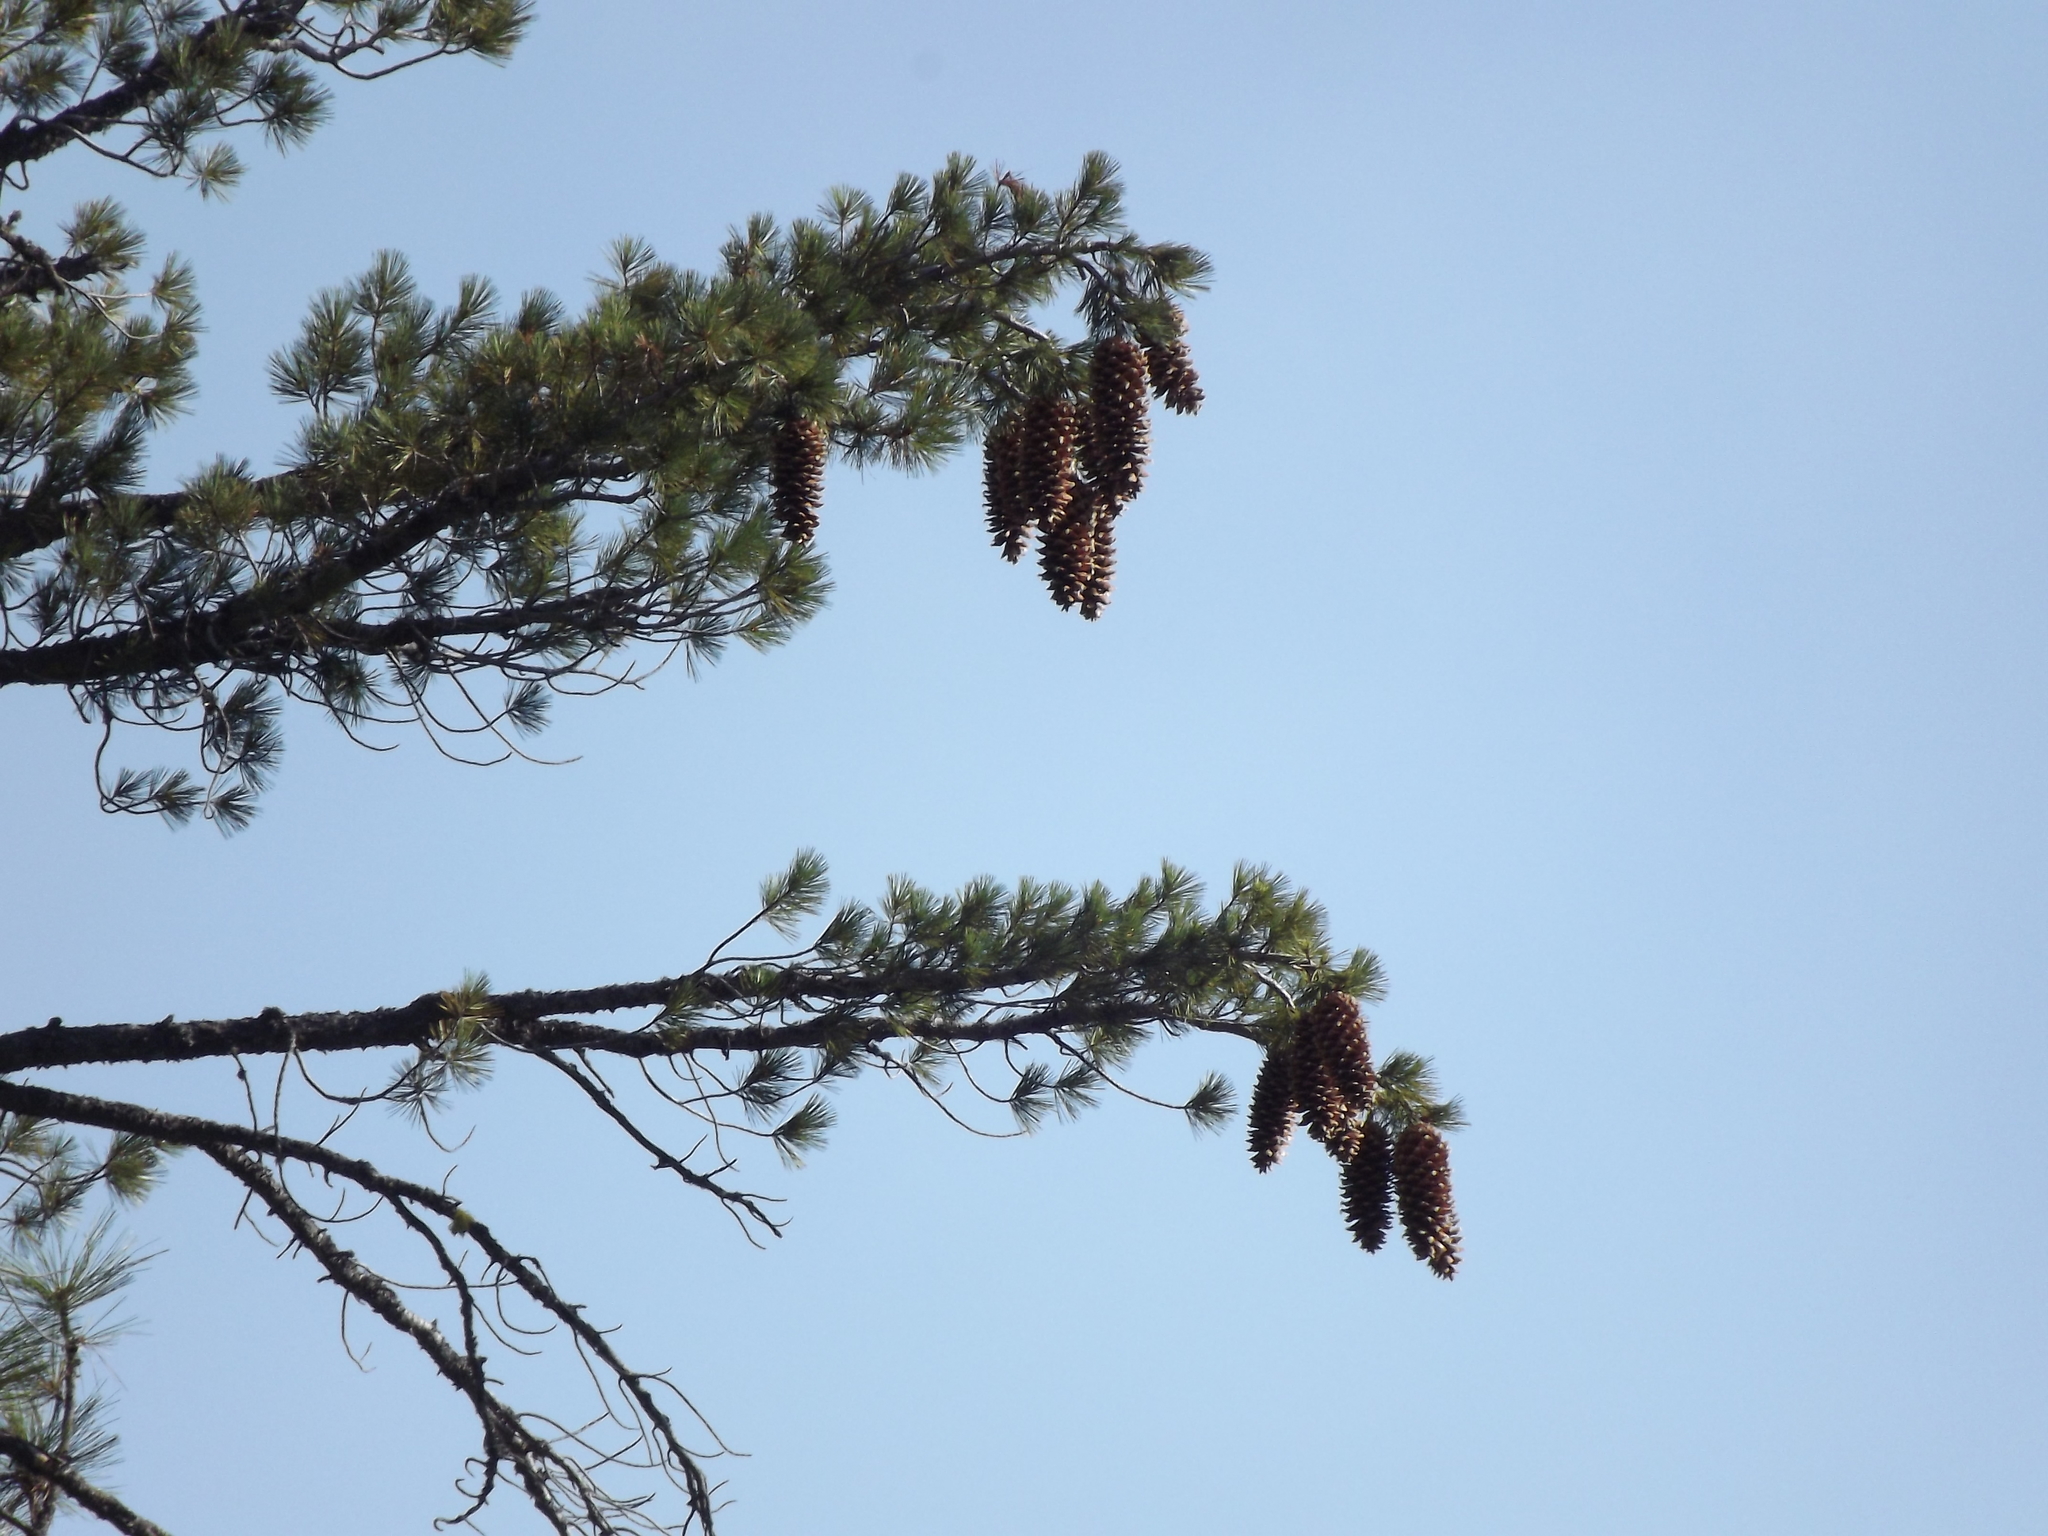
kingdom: Plantae
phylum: Tracheophyta
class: Pinopsida
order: Pinales
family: Pinaceae
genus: Pinus
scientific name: Pinus lambertiana
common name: Sugar pine
